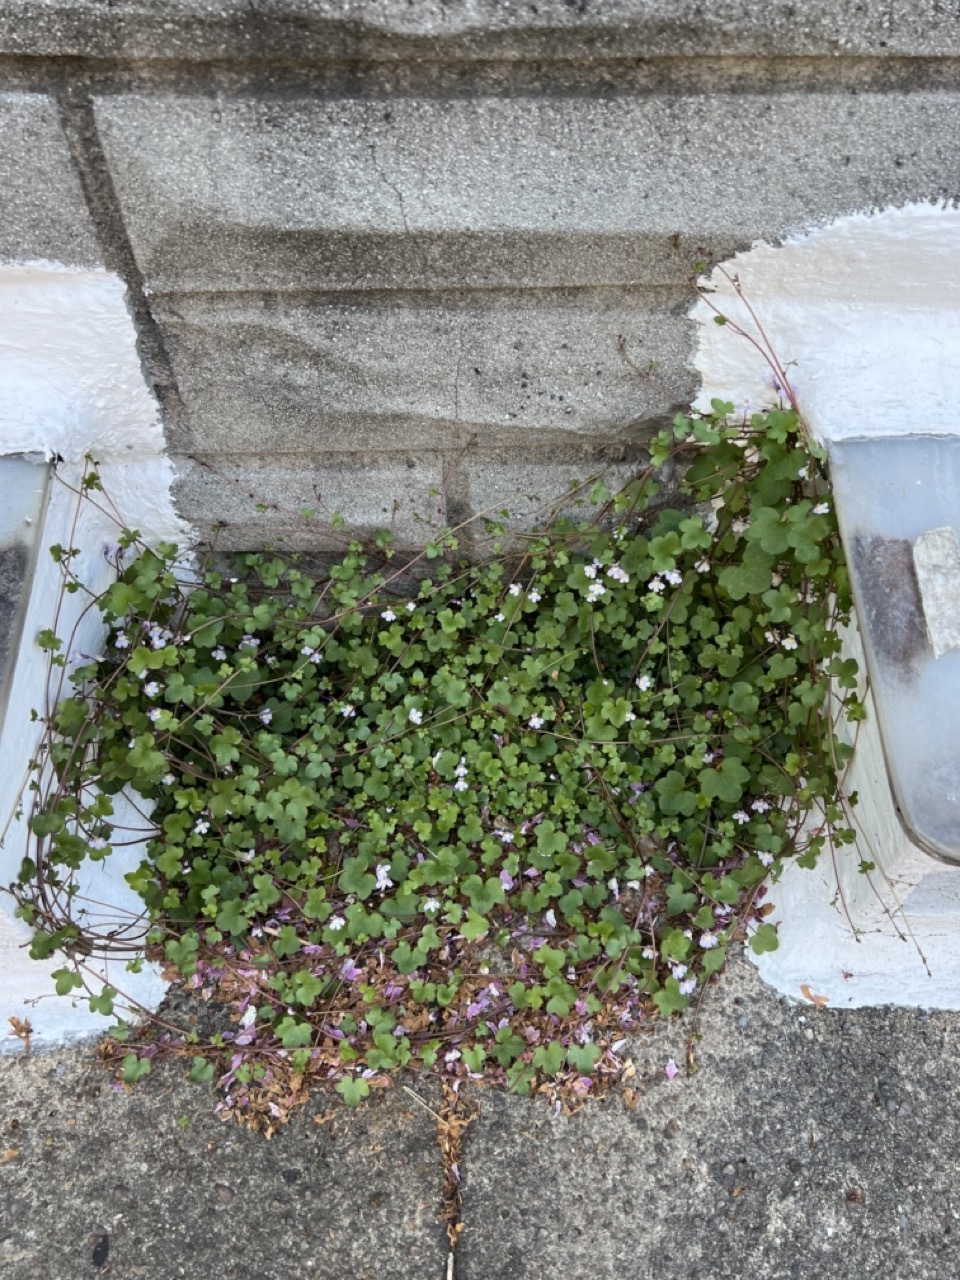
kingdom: Plantae
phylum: Tracheophyta
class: Magnoliopsida
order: Lamiales
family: Plantaginaceae
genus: Cymbalaria
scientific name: Cymbalaria muralis
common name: Ivy-leaved toadflax
